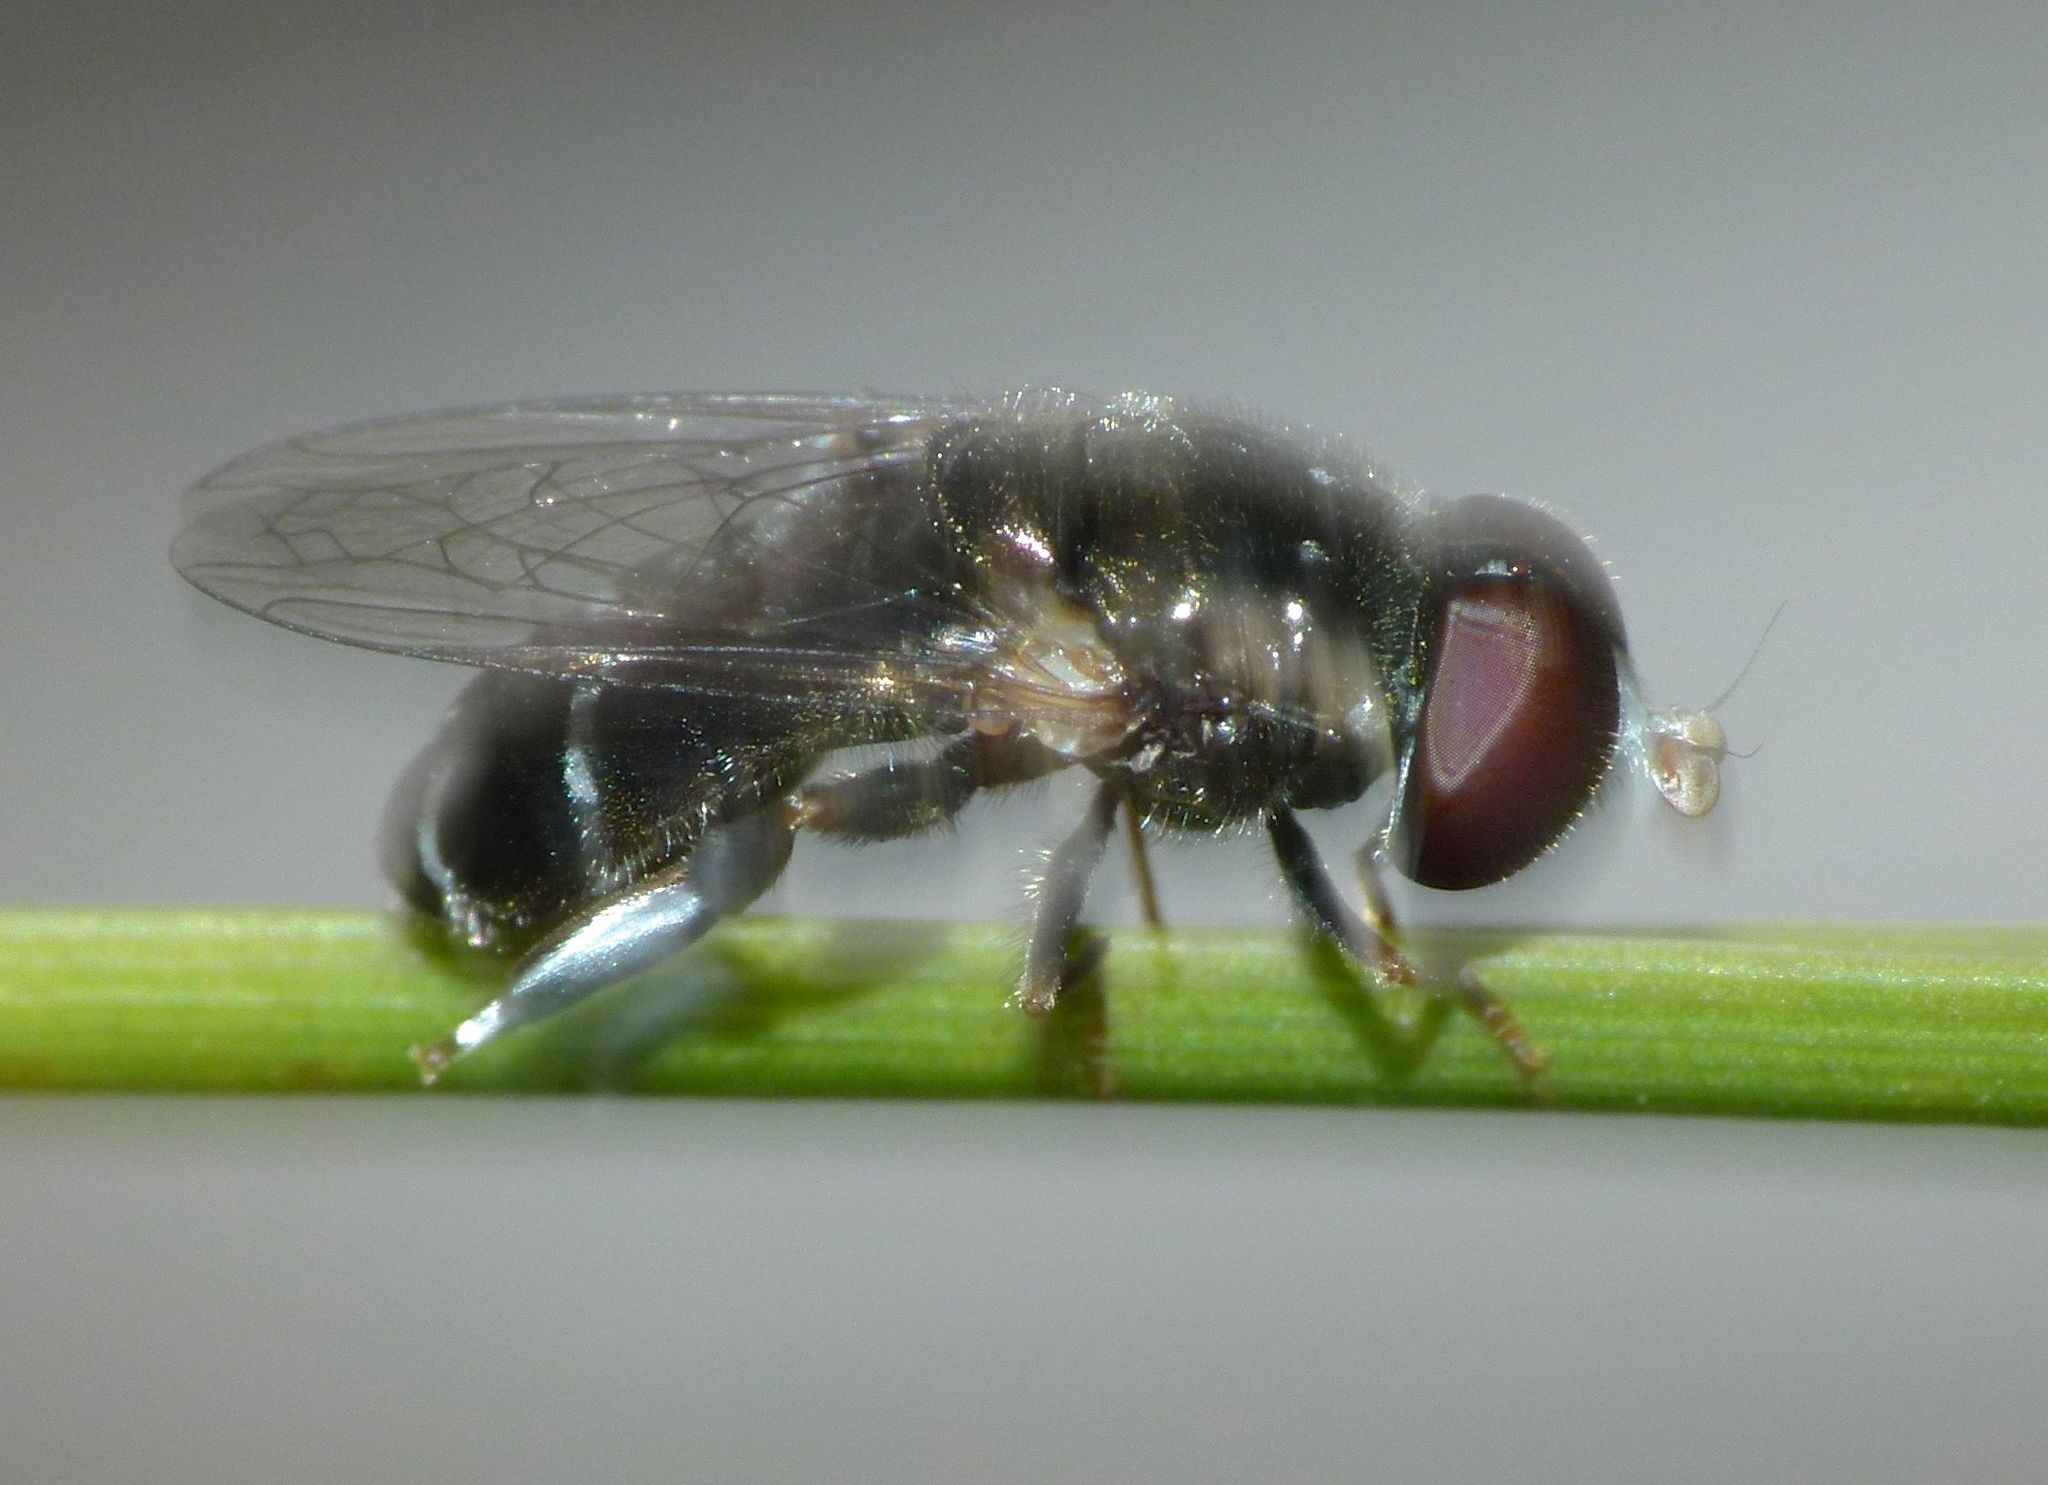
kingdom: Animalia
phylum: Arthropoda
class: Insecta
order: Diptera
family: Syrphidae
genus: Eumerus
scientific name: Eumerus speculifer
